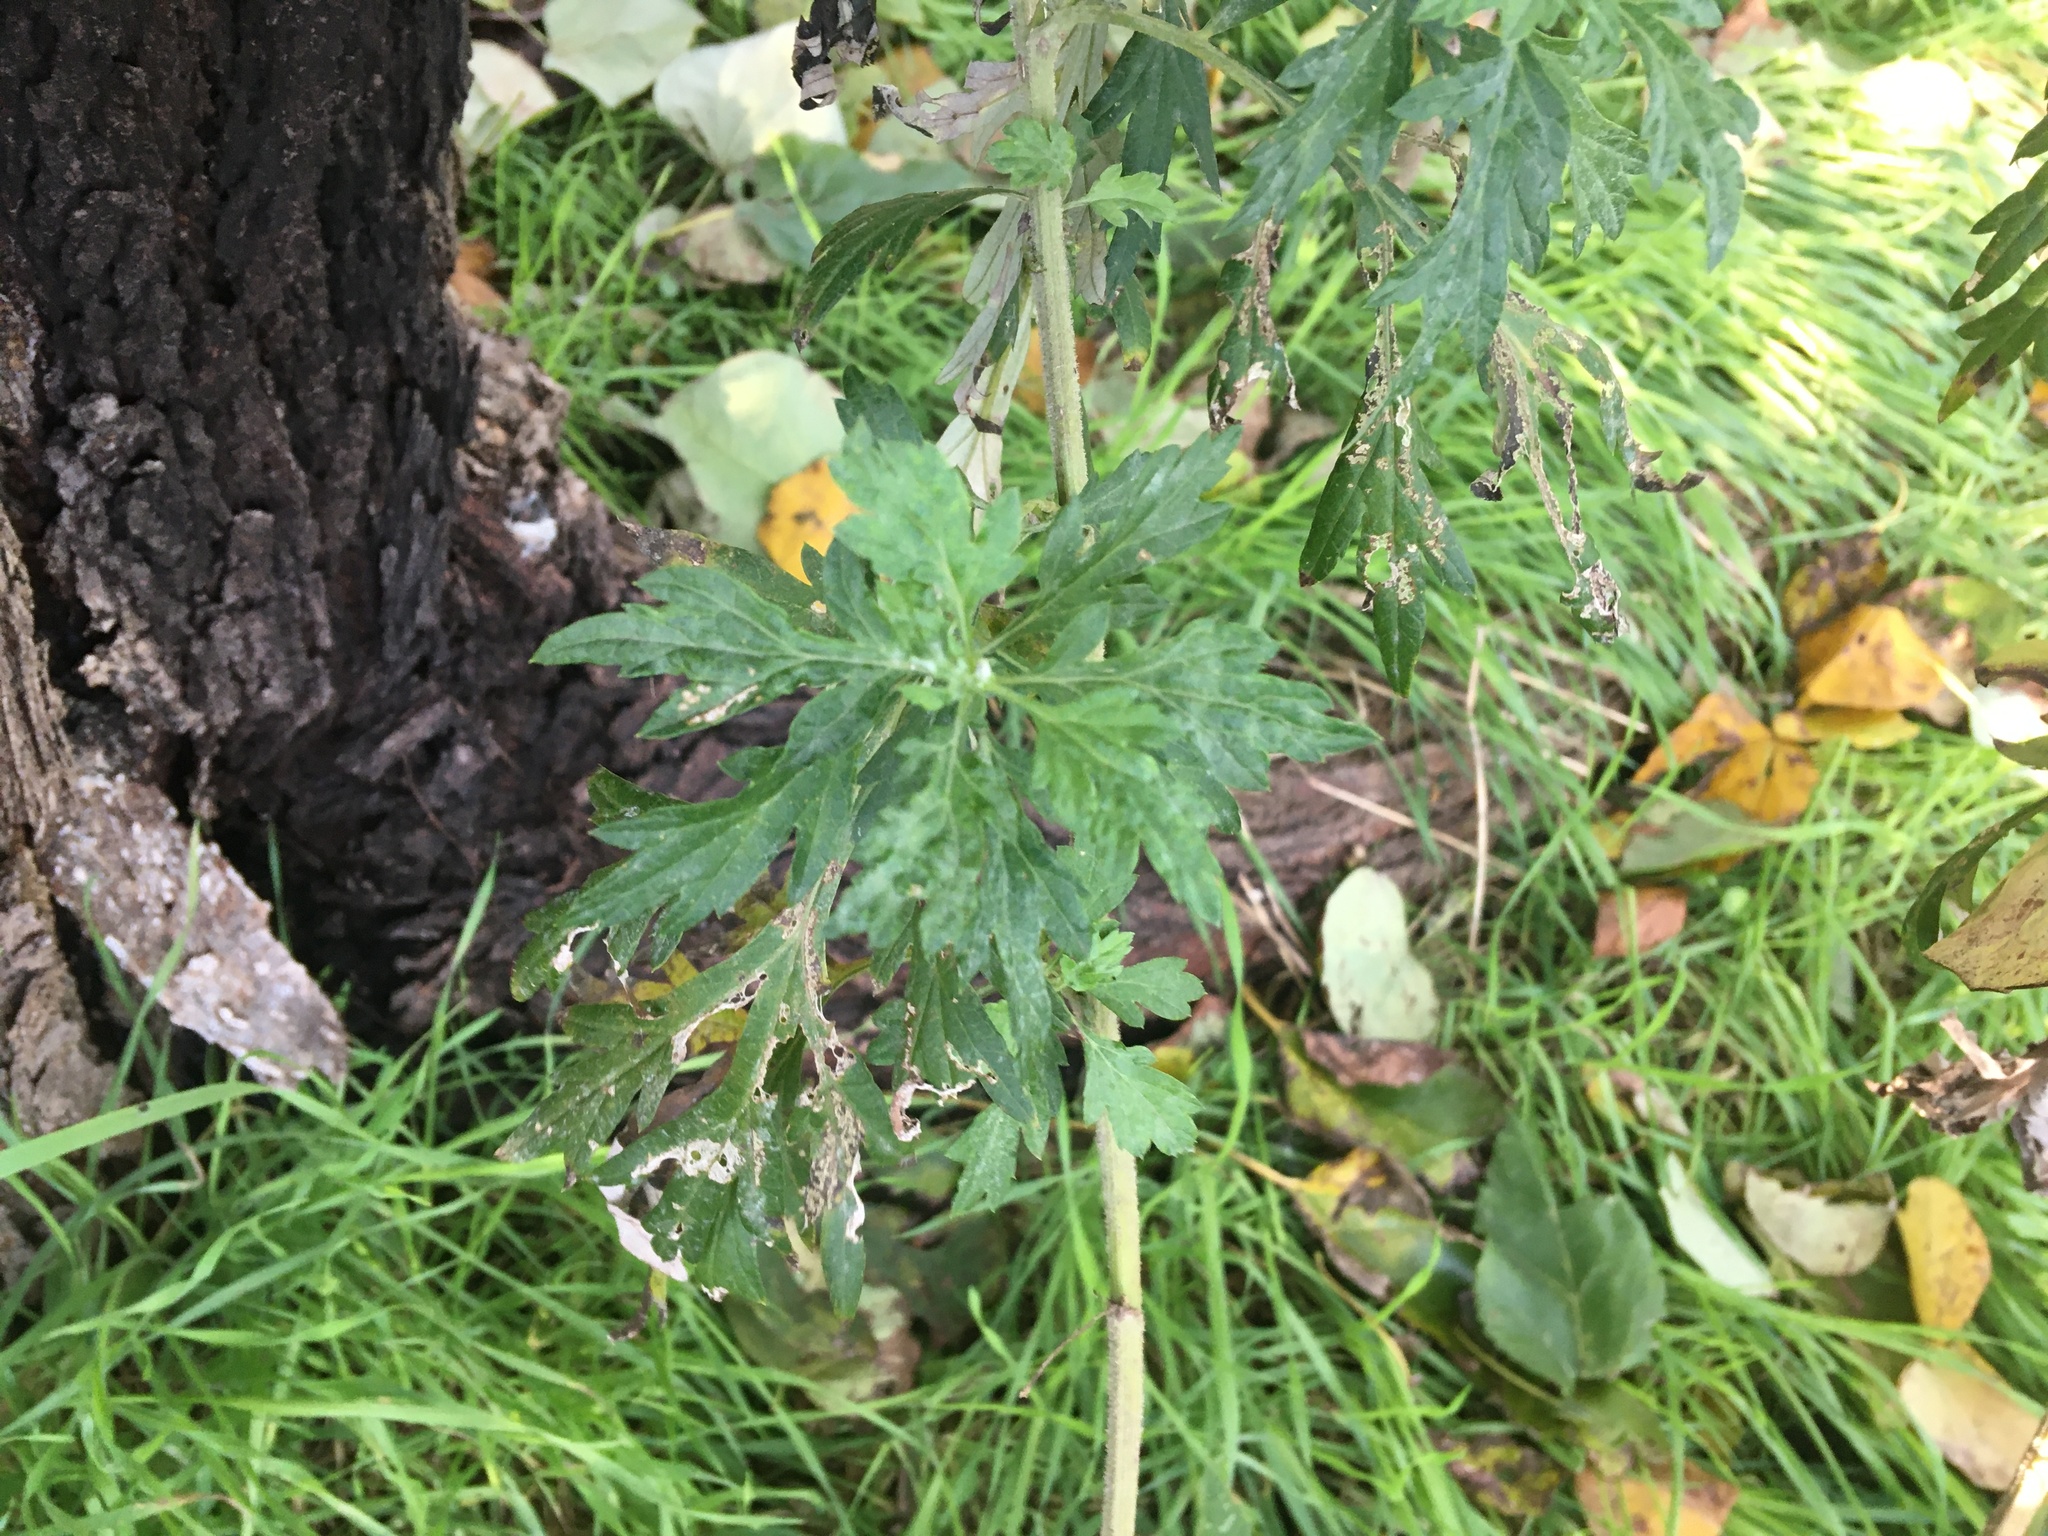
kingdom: Plantae
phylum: Tracheophyta
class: Magnoliopsida
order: Asterales
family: Asteraceae
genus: Artemisia
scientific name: Artemisia vulgaris
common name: Mugwort
